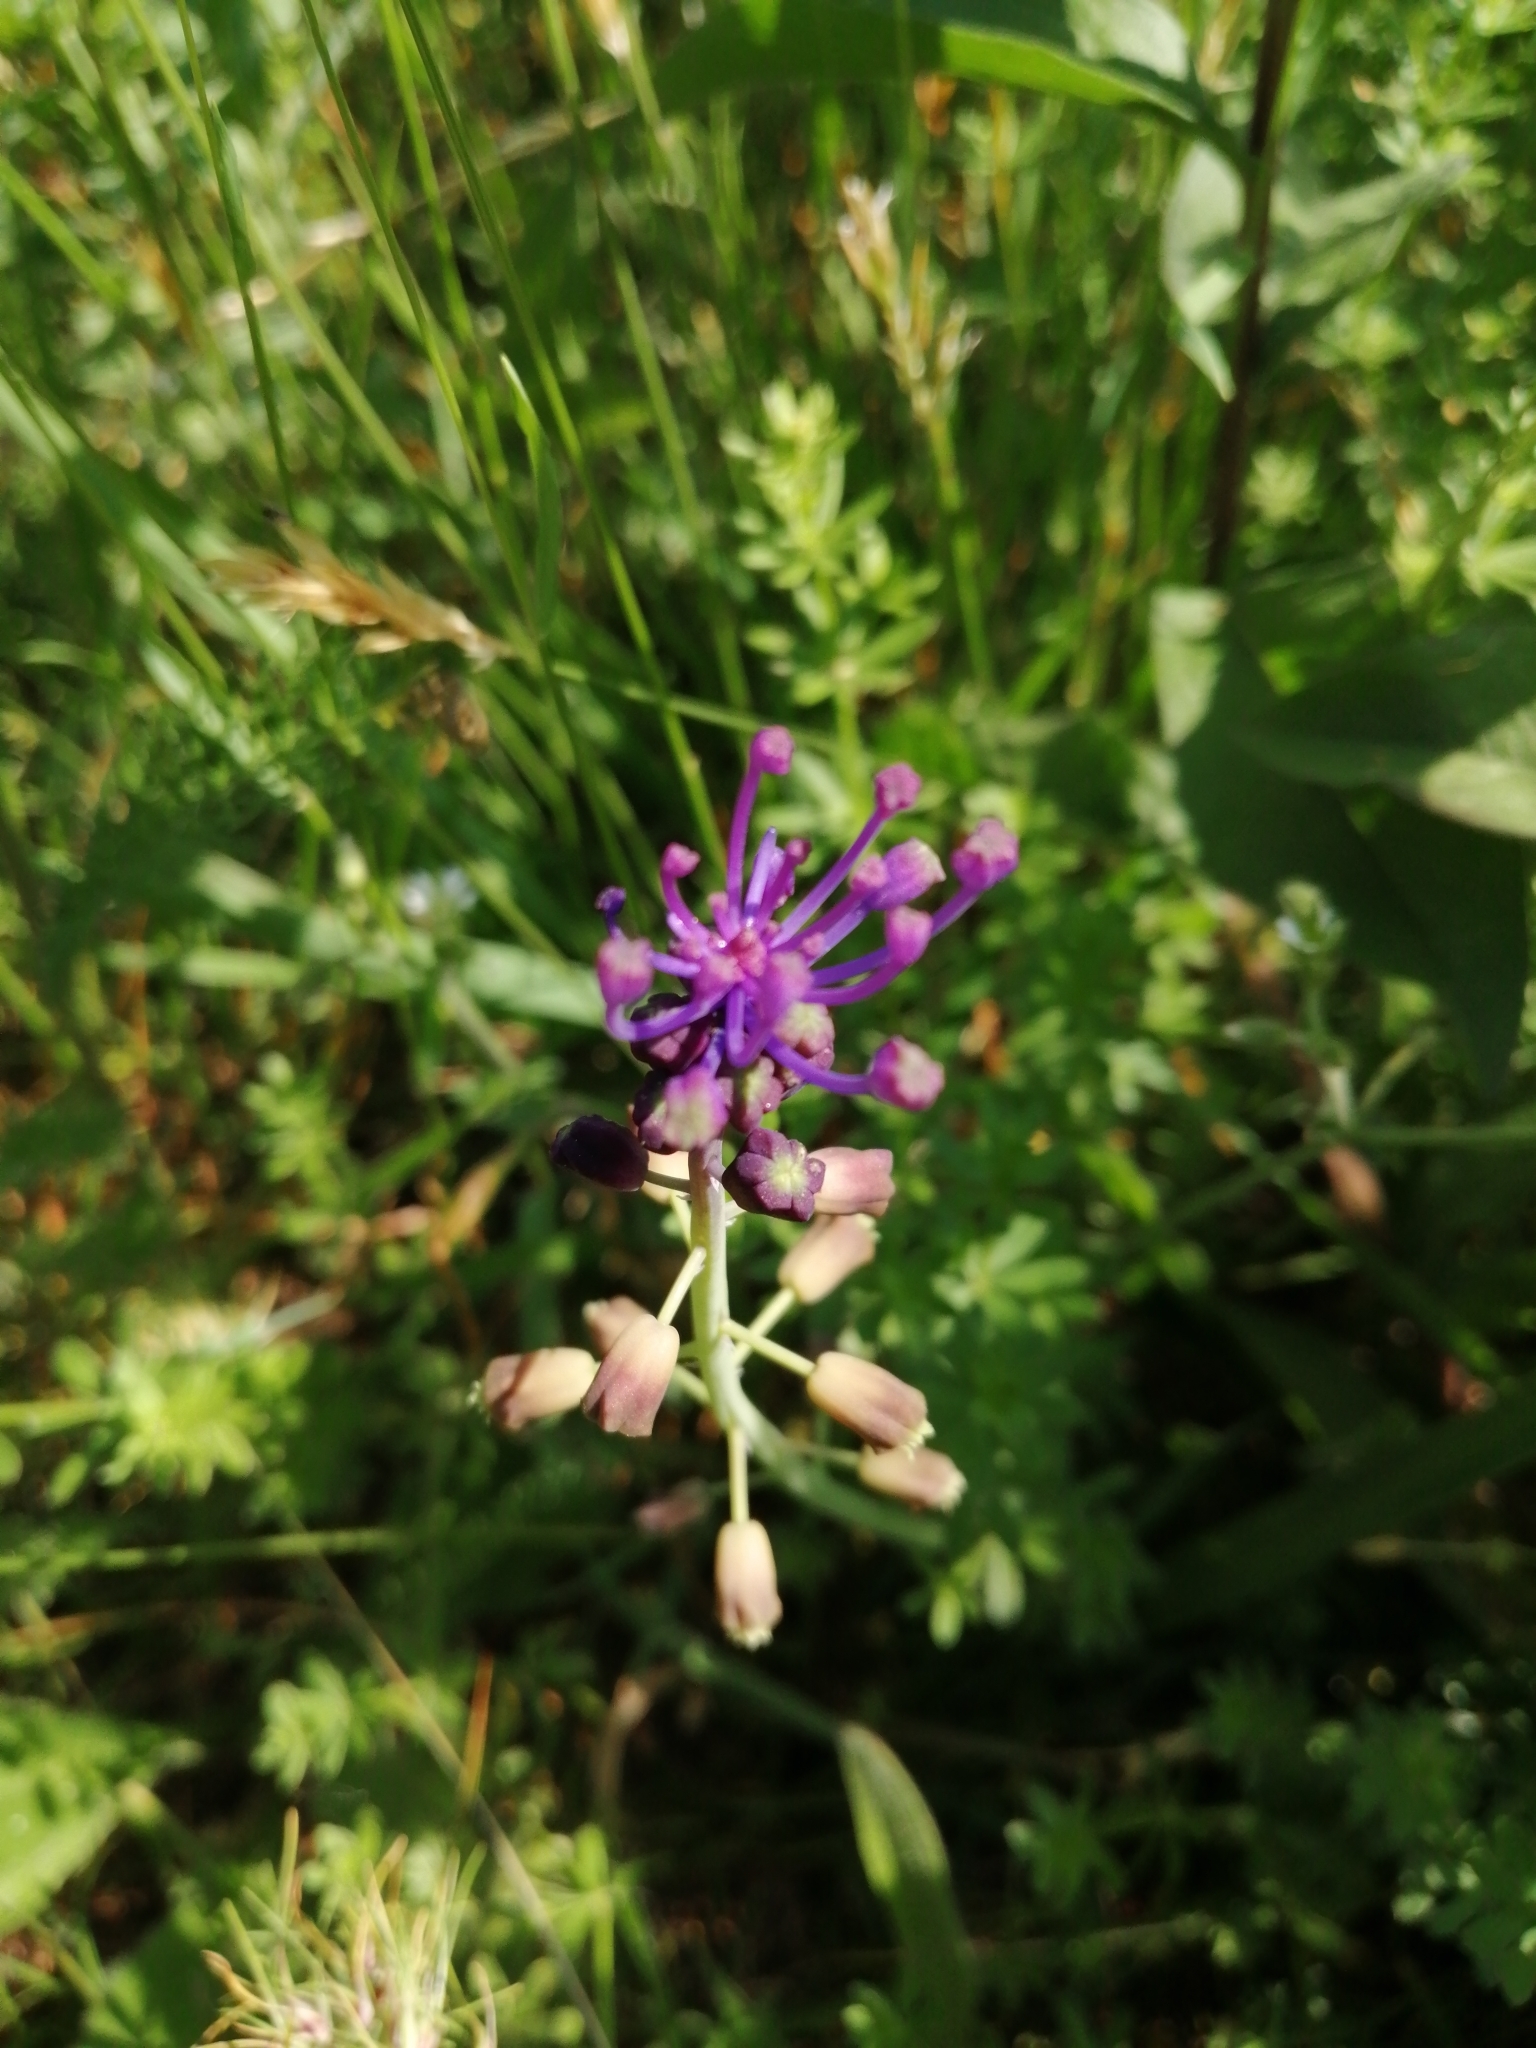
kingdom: Plantae
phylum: Tracheophyta
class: Liliopsida
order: Asparagales
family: Asparagaceae
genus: Muscari
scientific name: Muscari comosum
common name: Tassel hyacinth
